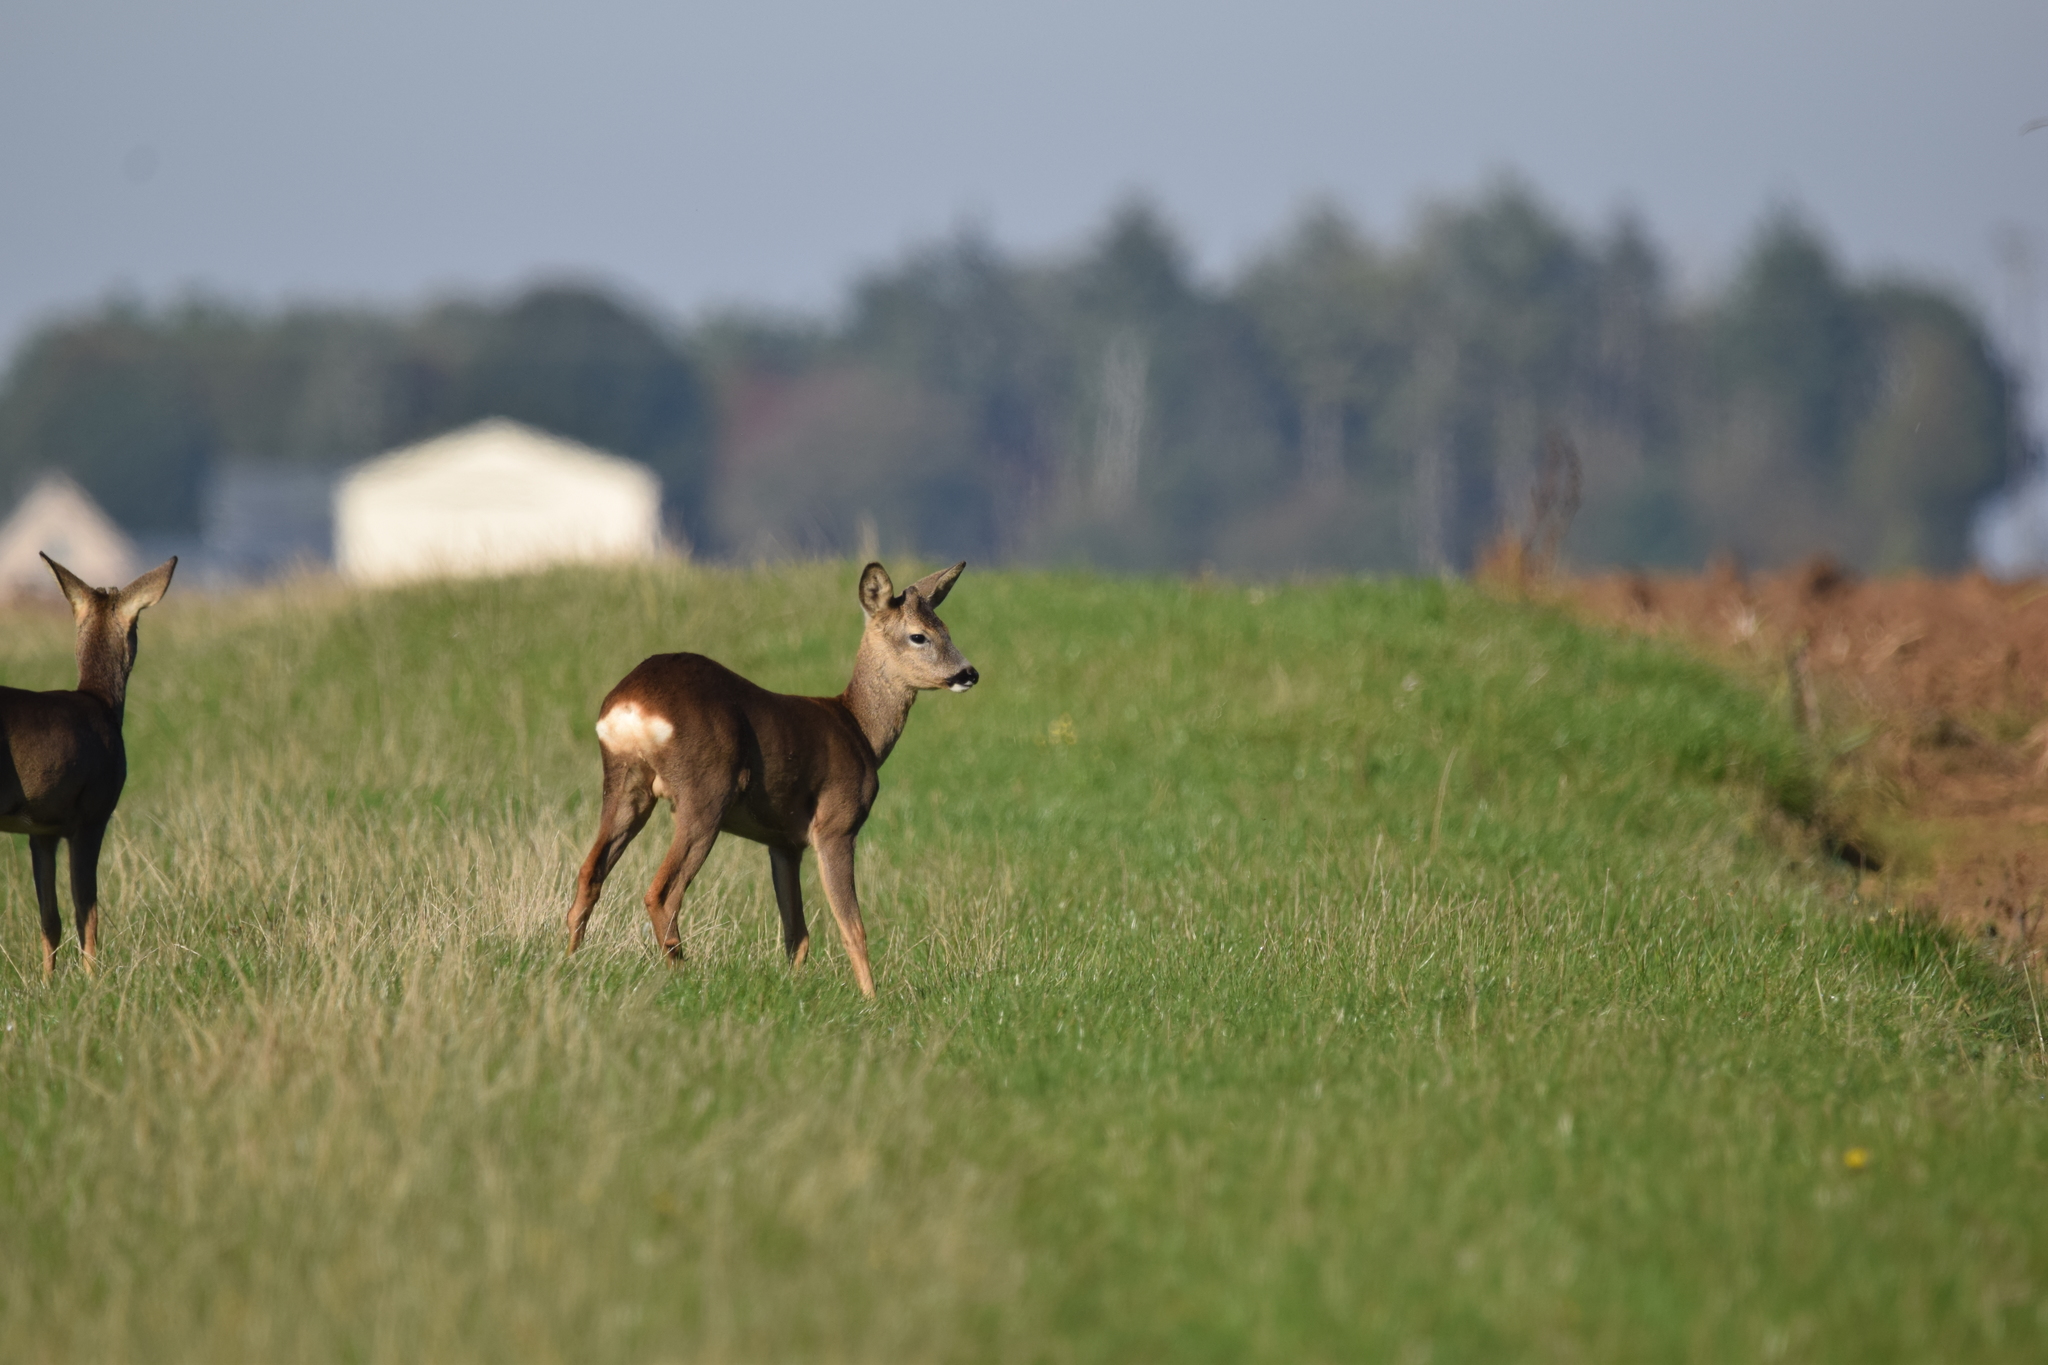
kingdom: Animalia
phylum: Chordata
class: Mammalia
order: Artiodactyla
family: Cervidae
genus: Capreolus
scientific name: Capreolus capreolus
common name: Western roe deer
